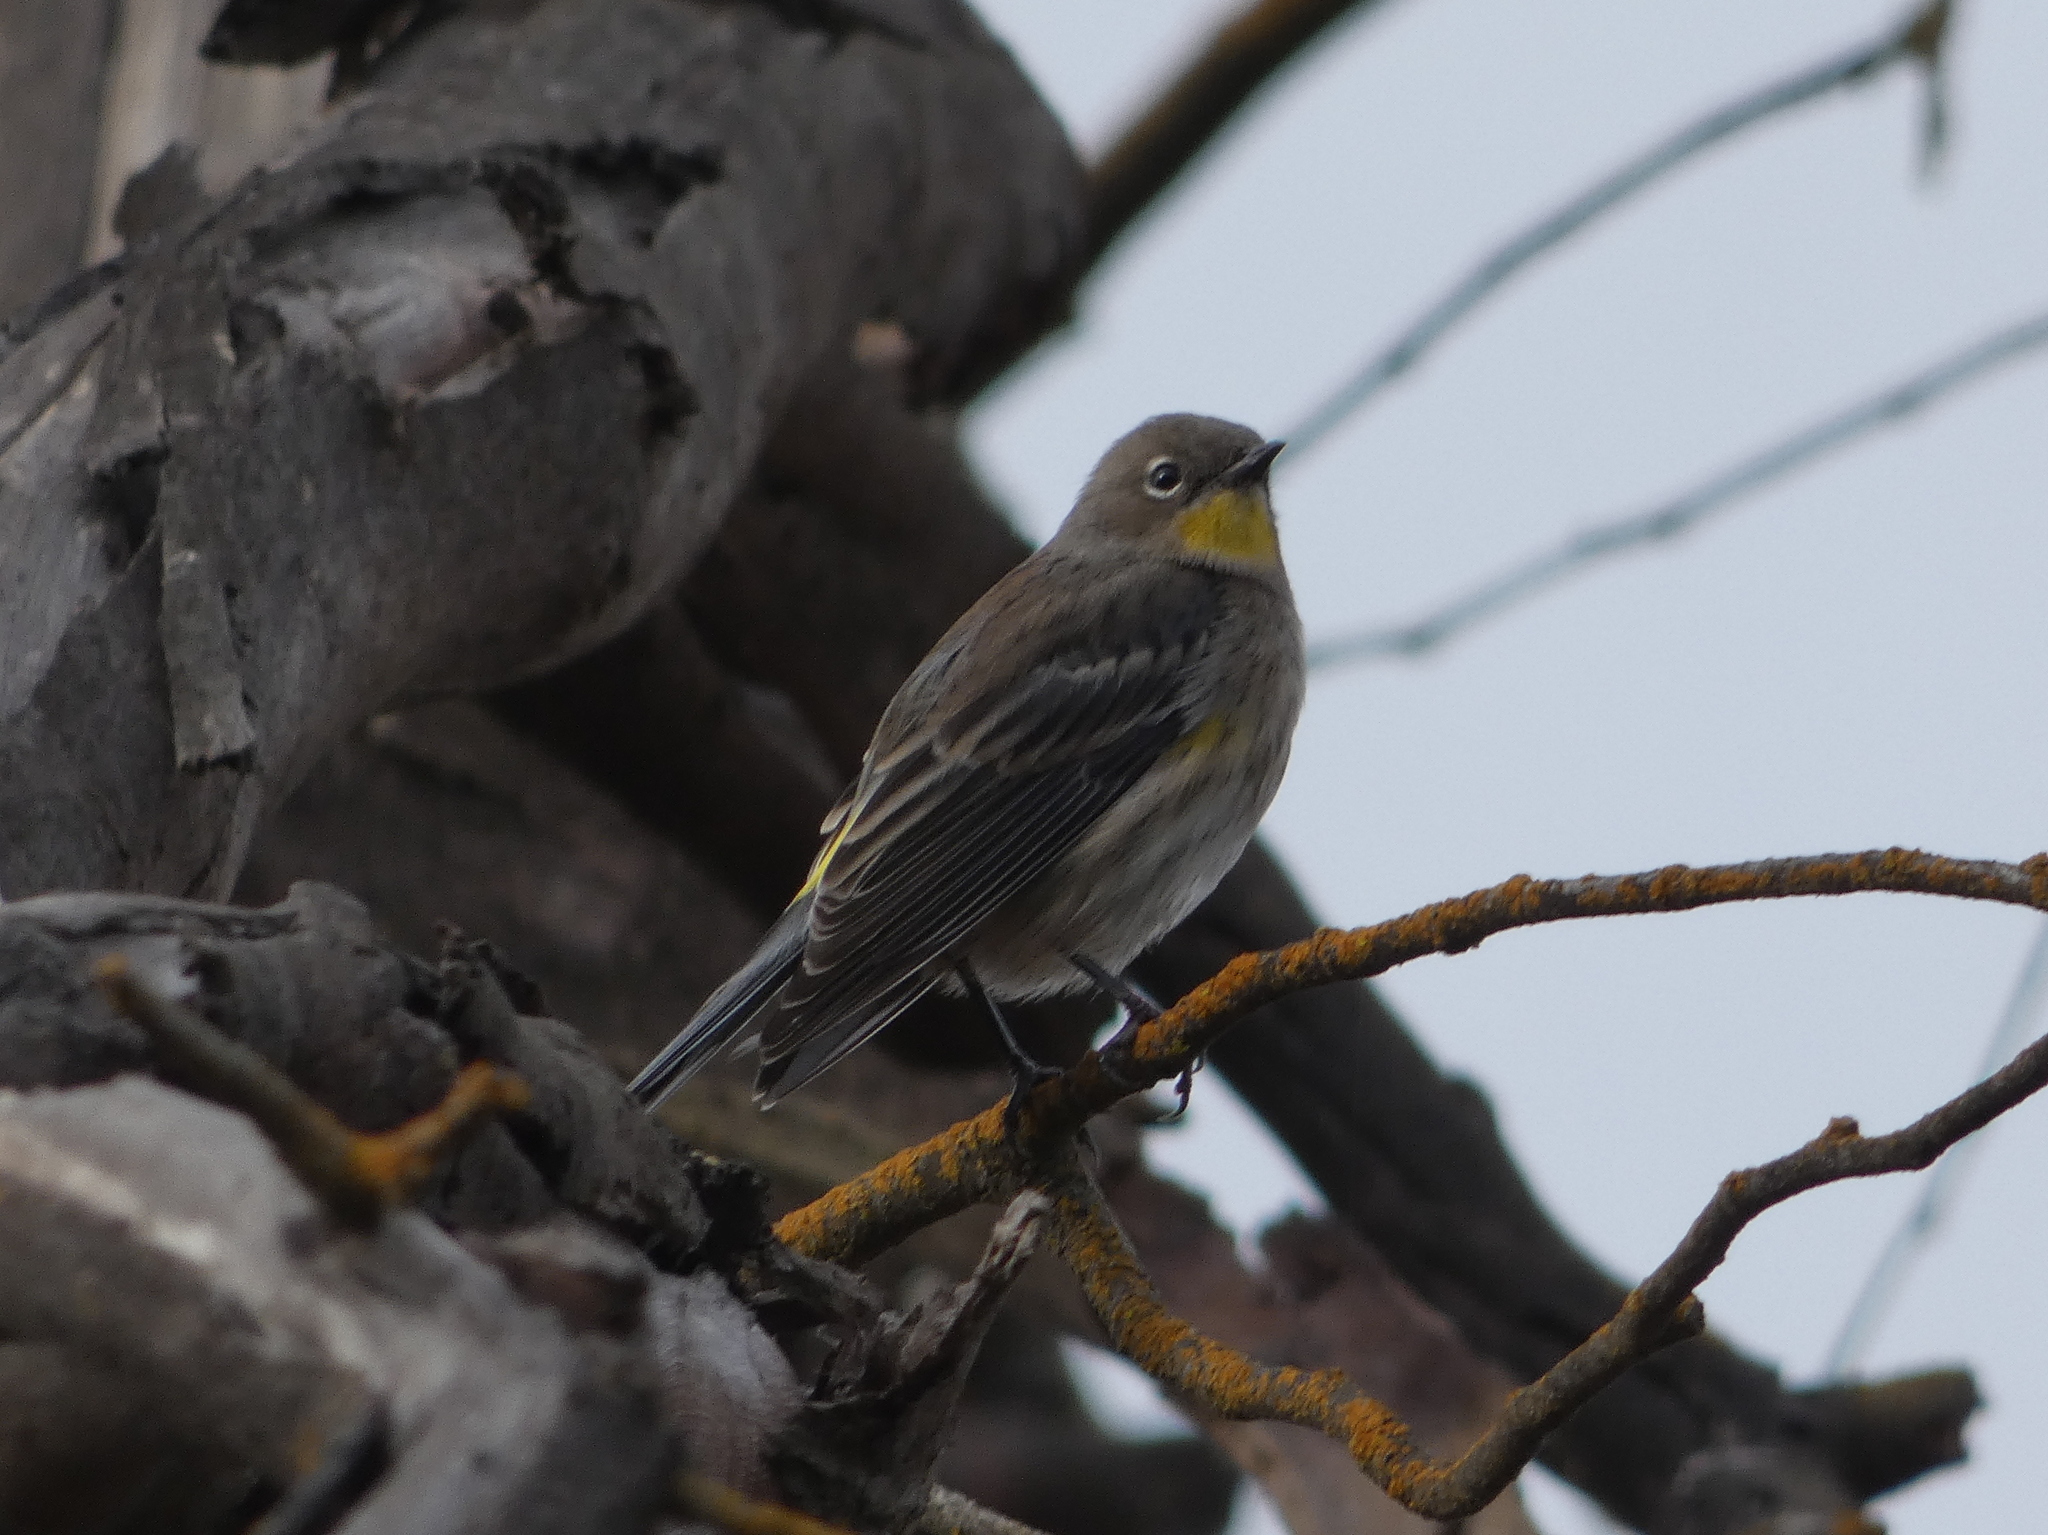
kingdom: Animalia
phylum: Chordata
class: Aves
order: Passeriformes
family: Parulidae
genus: Setophaga
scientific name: Setophaga auduboni
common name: Audubon's warbler
